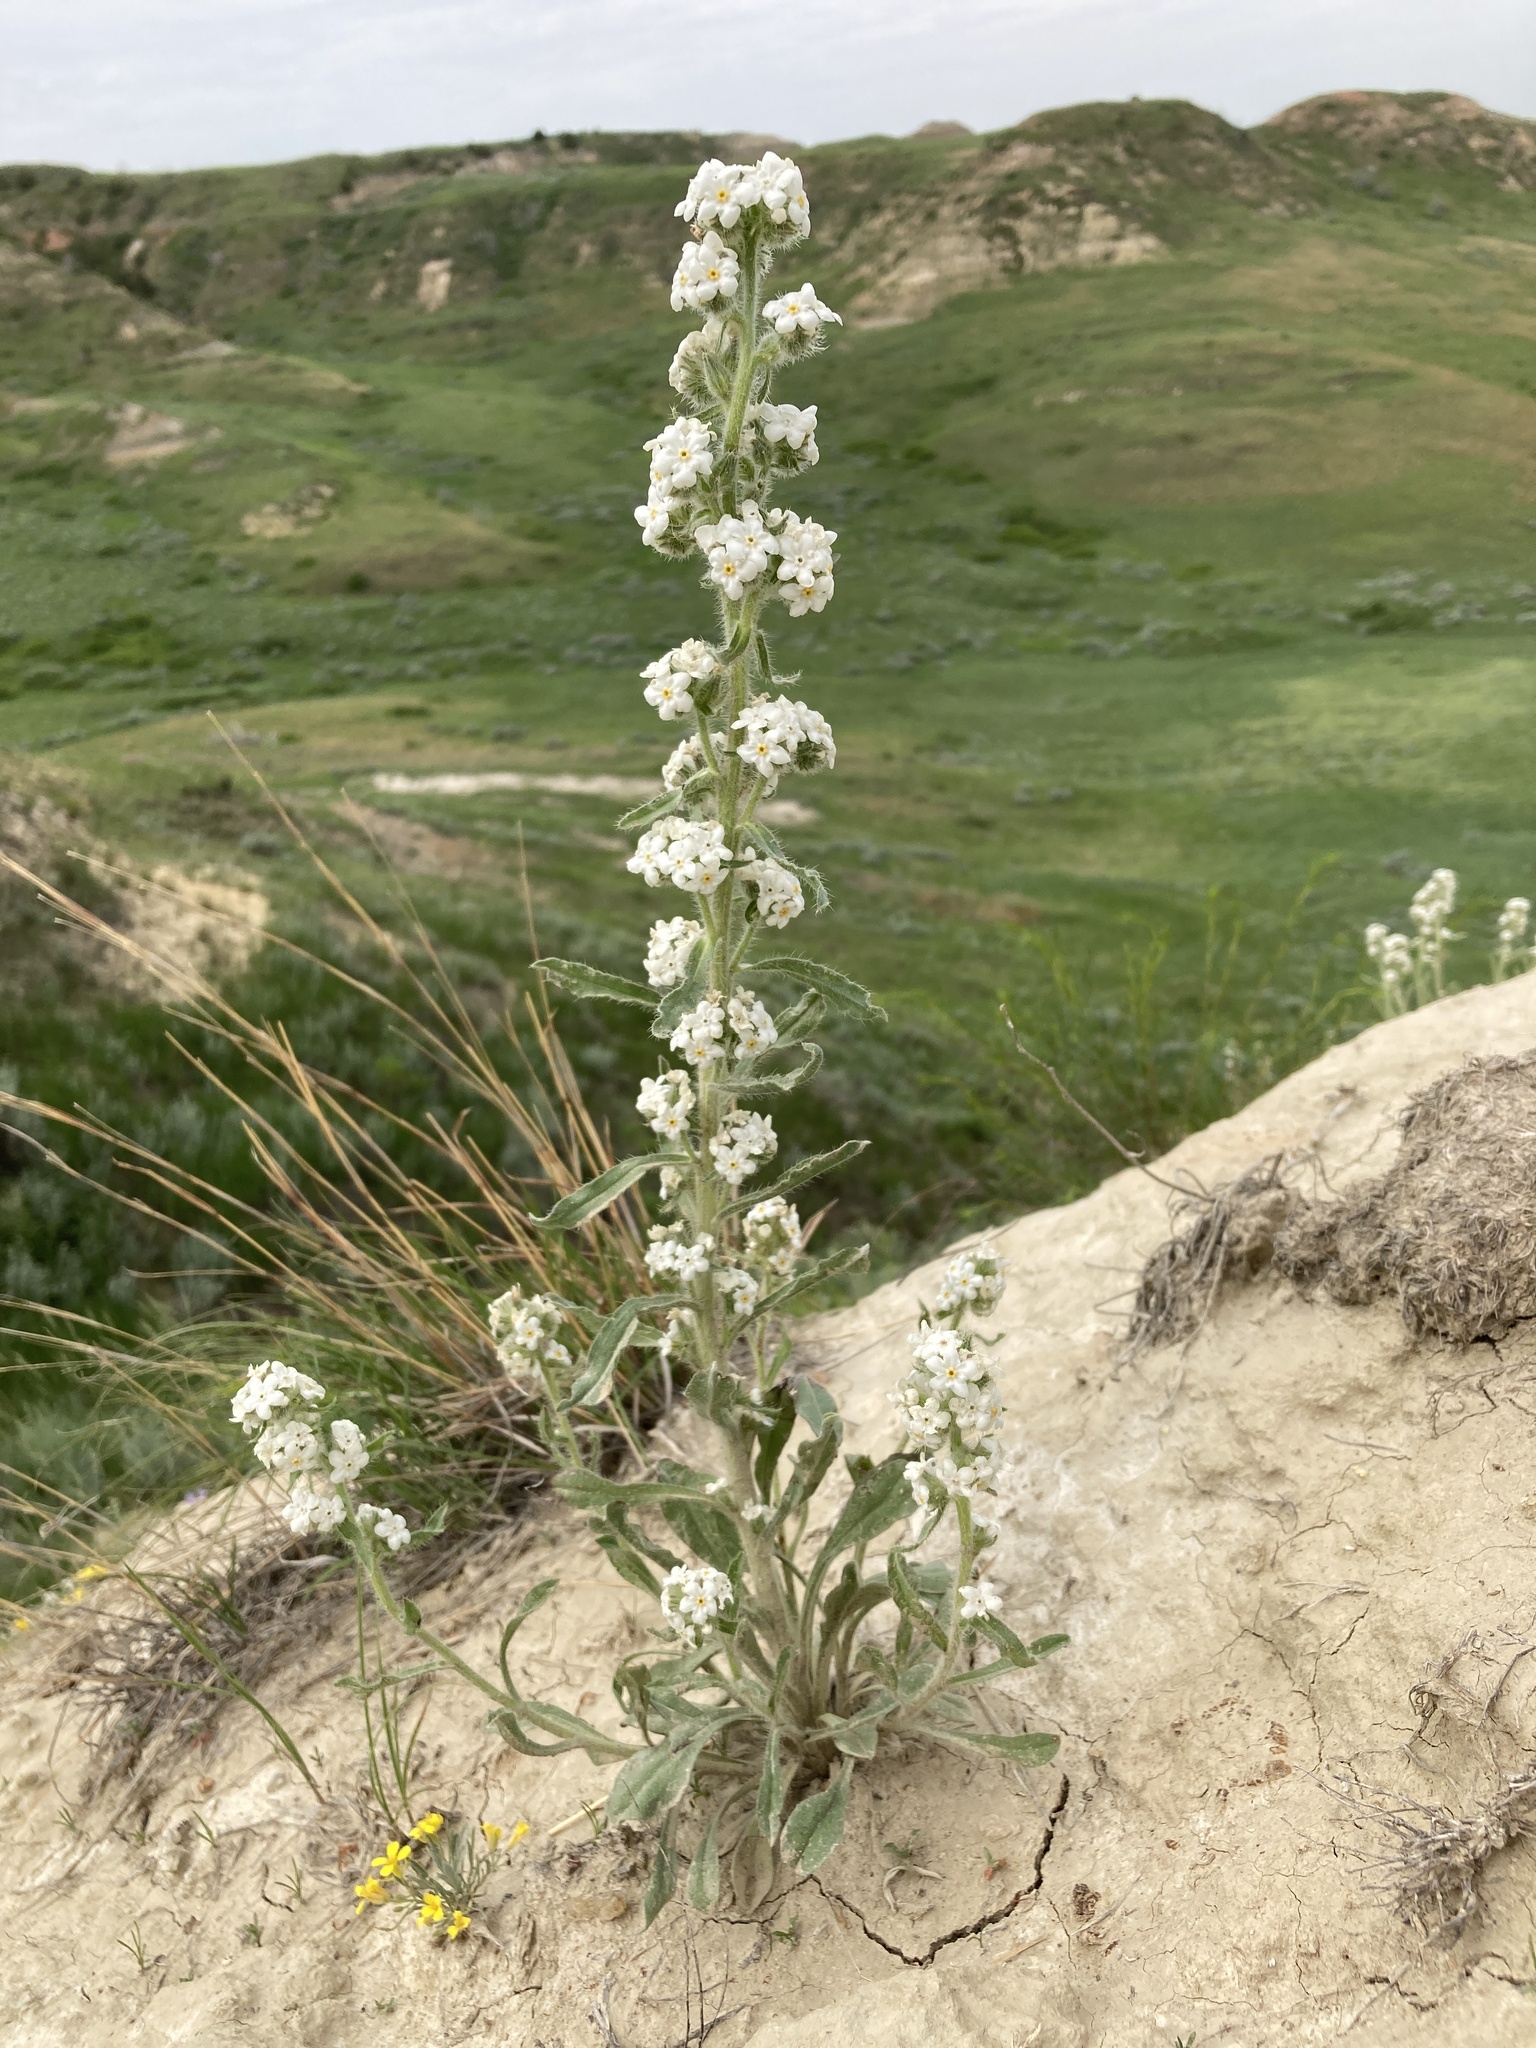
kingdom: Plantae
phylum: Tracheophyta
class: Magnoliopsida
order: Boraginales
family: Boraginaceae
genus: Oreocarya
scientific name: Oreocarya glomerata
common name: Macoun's cryptantha
